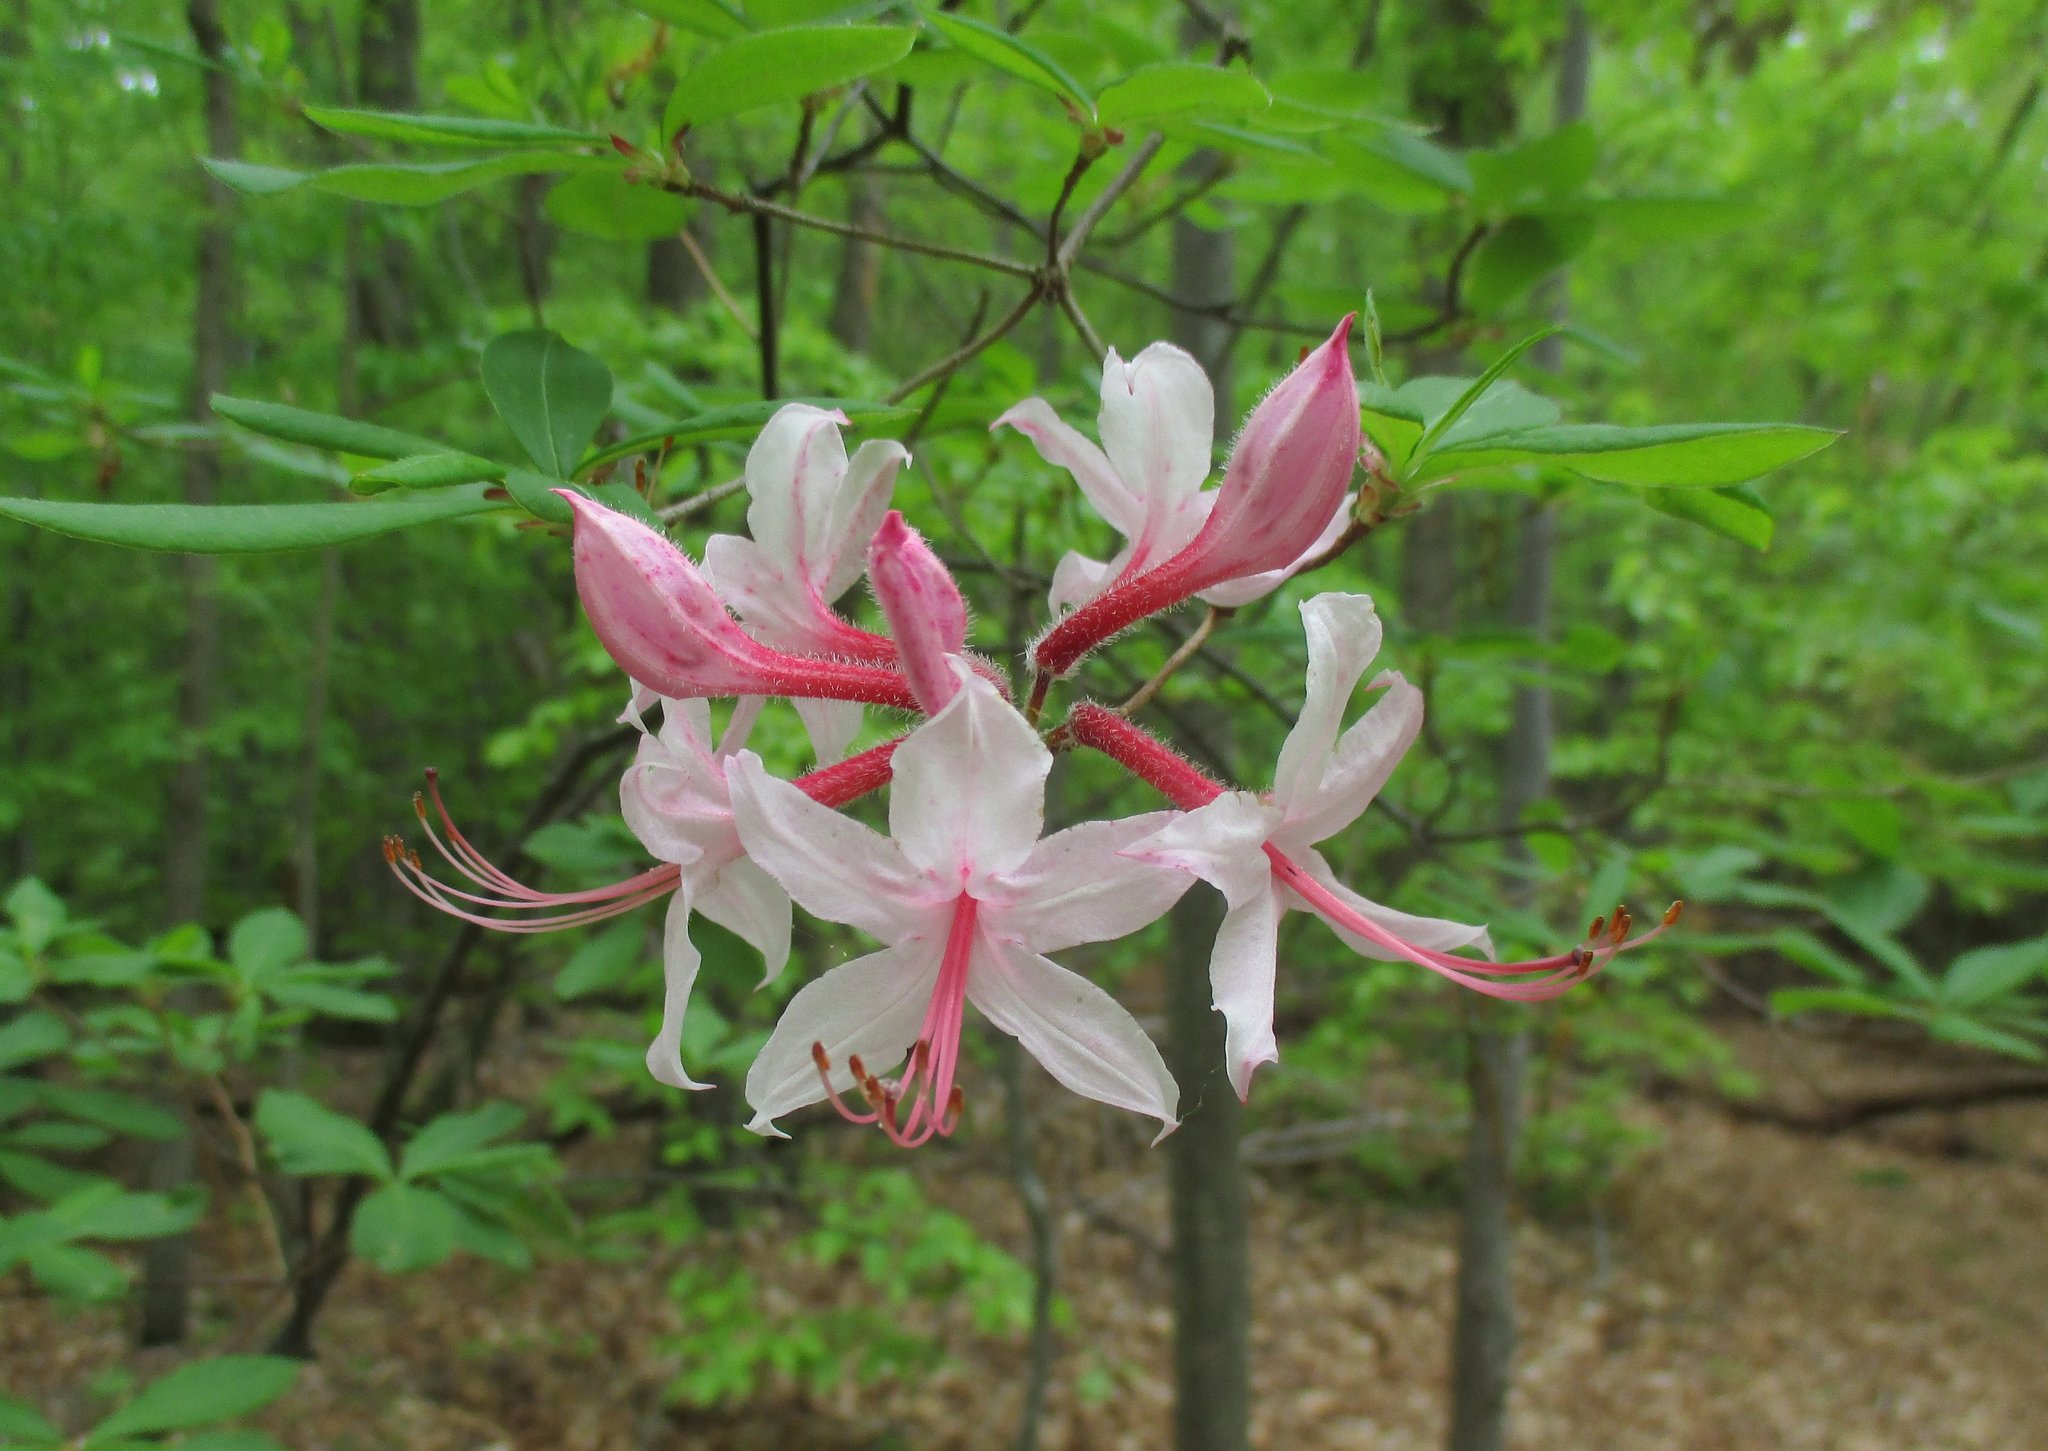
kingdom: Plantae
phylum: Tracheophyta
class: Magnoliopsida
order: Ericales
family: Ericaceae
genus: Rhododendron
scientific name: Rhododendron periclymenoides
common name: Election-pink
